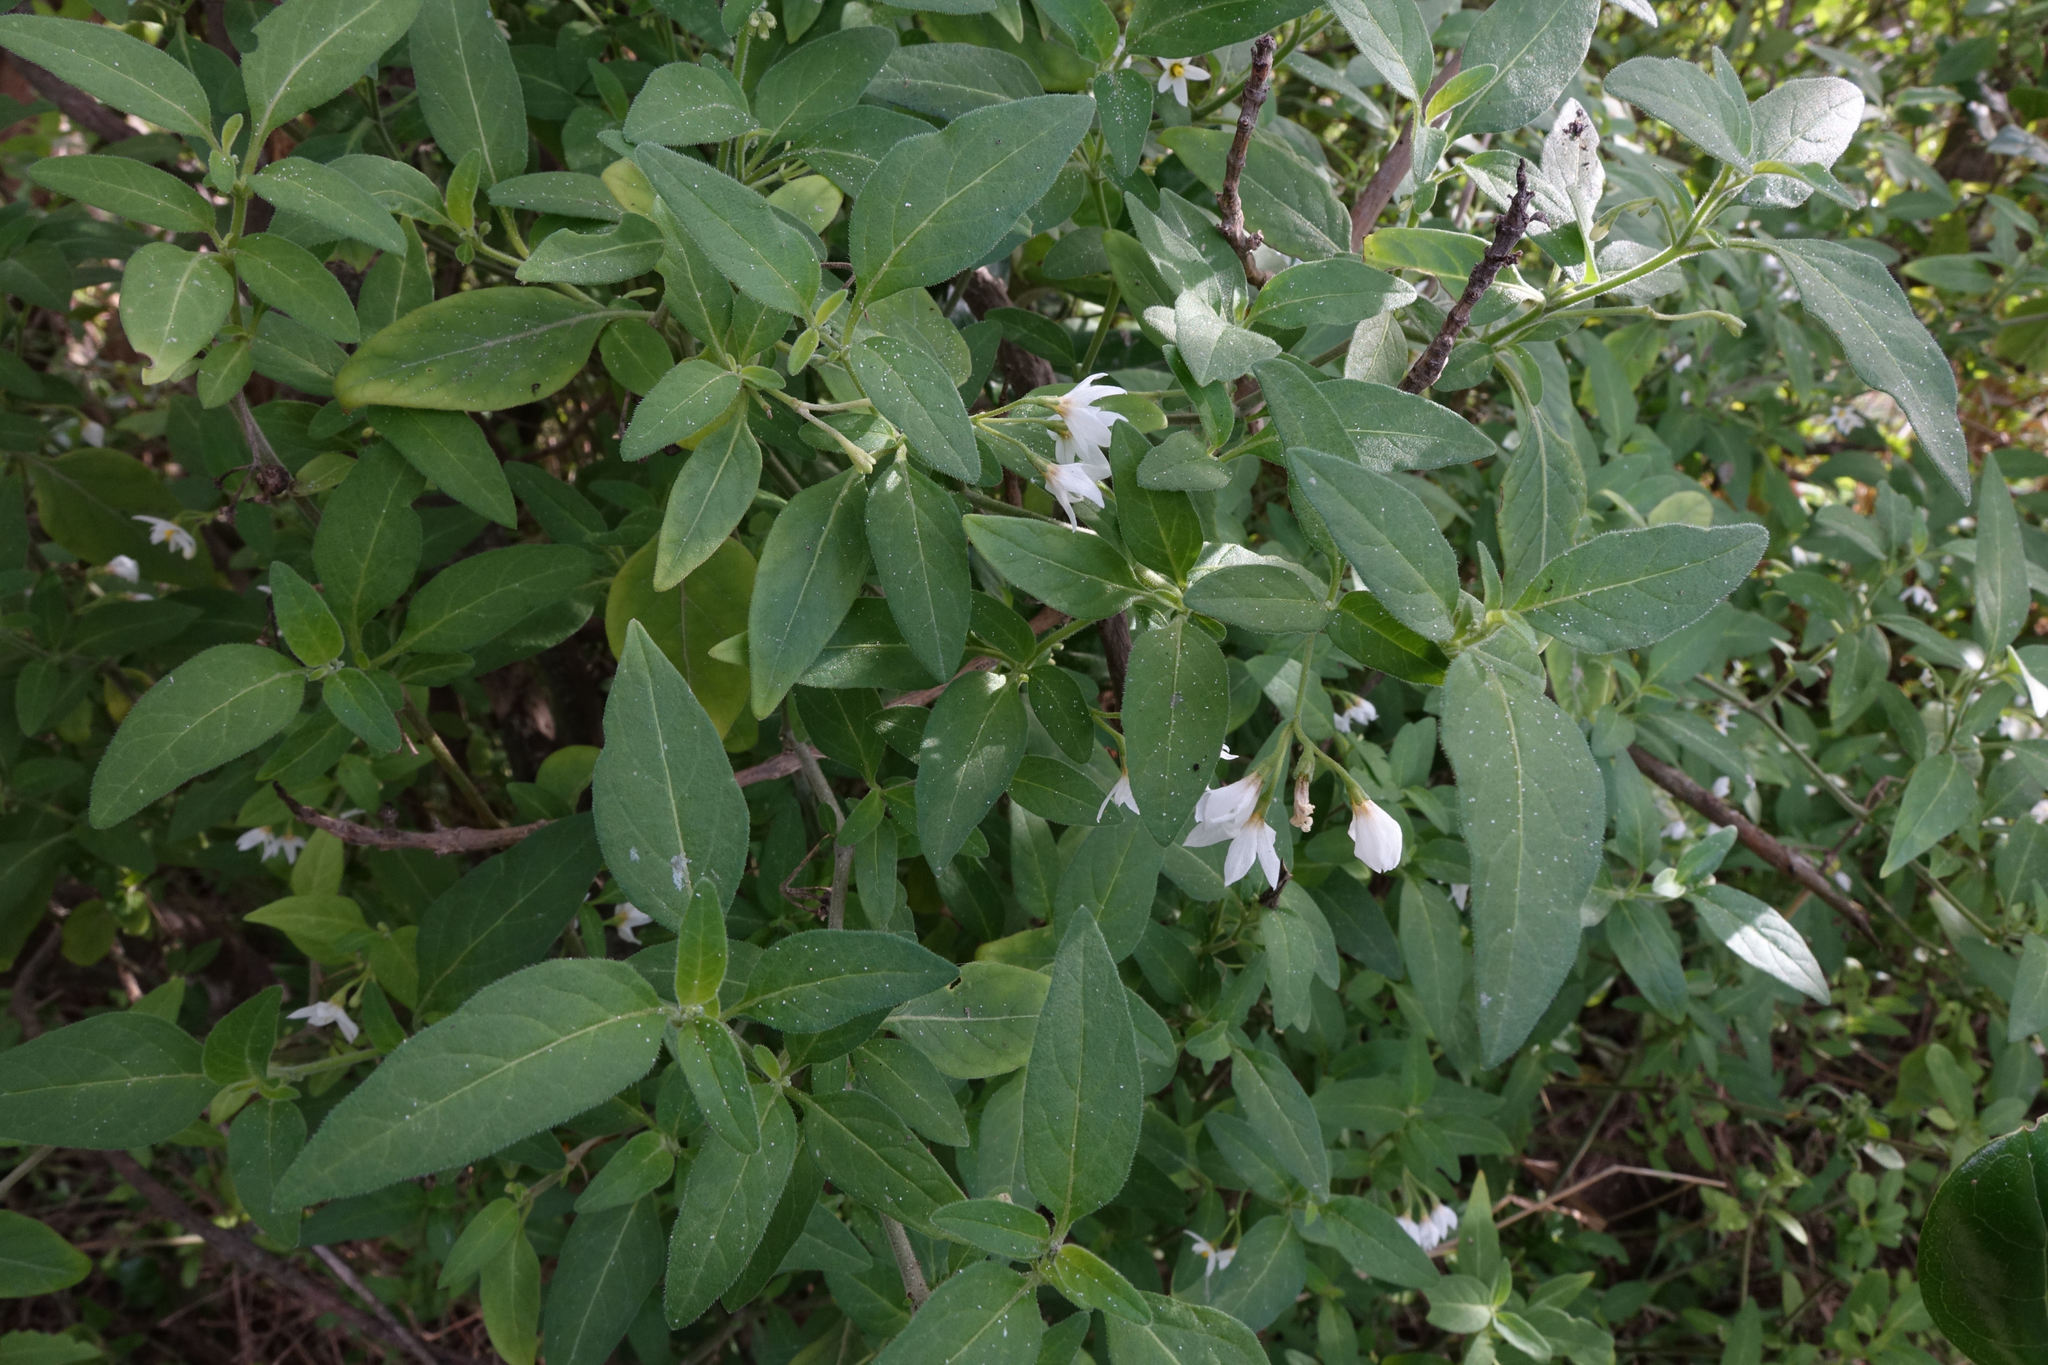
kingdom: Plantae
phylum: Tracheophyta
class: Magnoliopsida
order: Solanales
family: Solanaceae
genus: Solanum
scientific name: Solanum chenopodioides
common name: Tall nightshade
